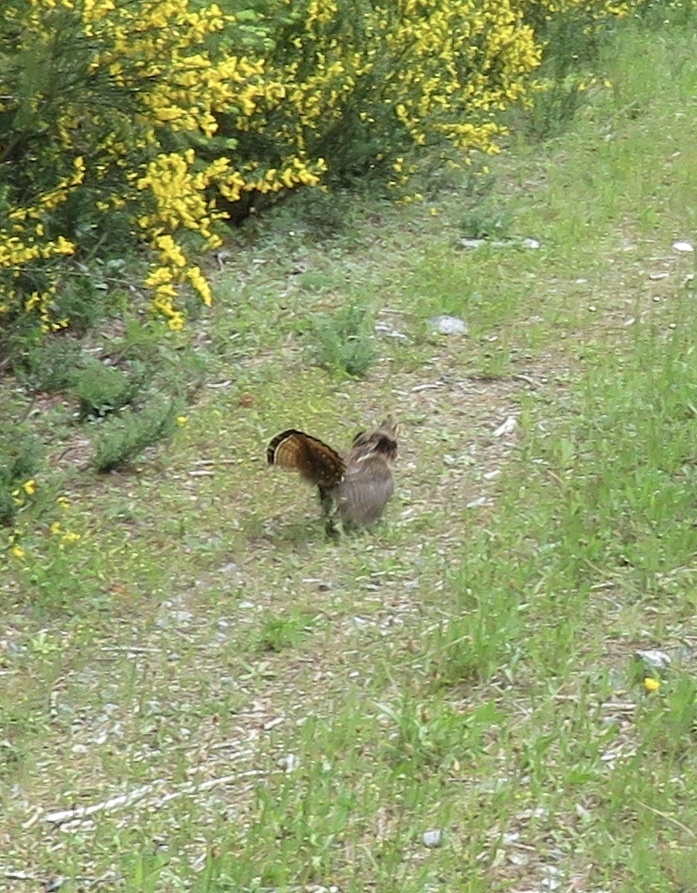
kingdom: Animalia
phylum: Chordata
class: Aves
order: Galliformes
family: Phasianidae
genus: Bonasa
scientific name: Bonasa umbellus
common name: Ruffed grouse
